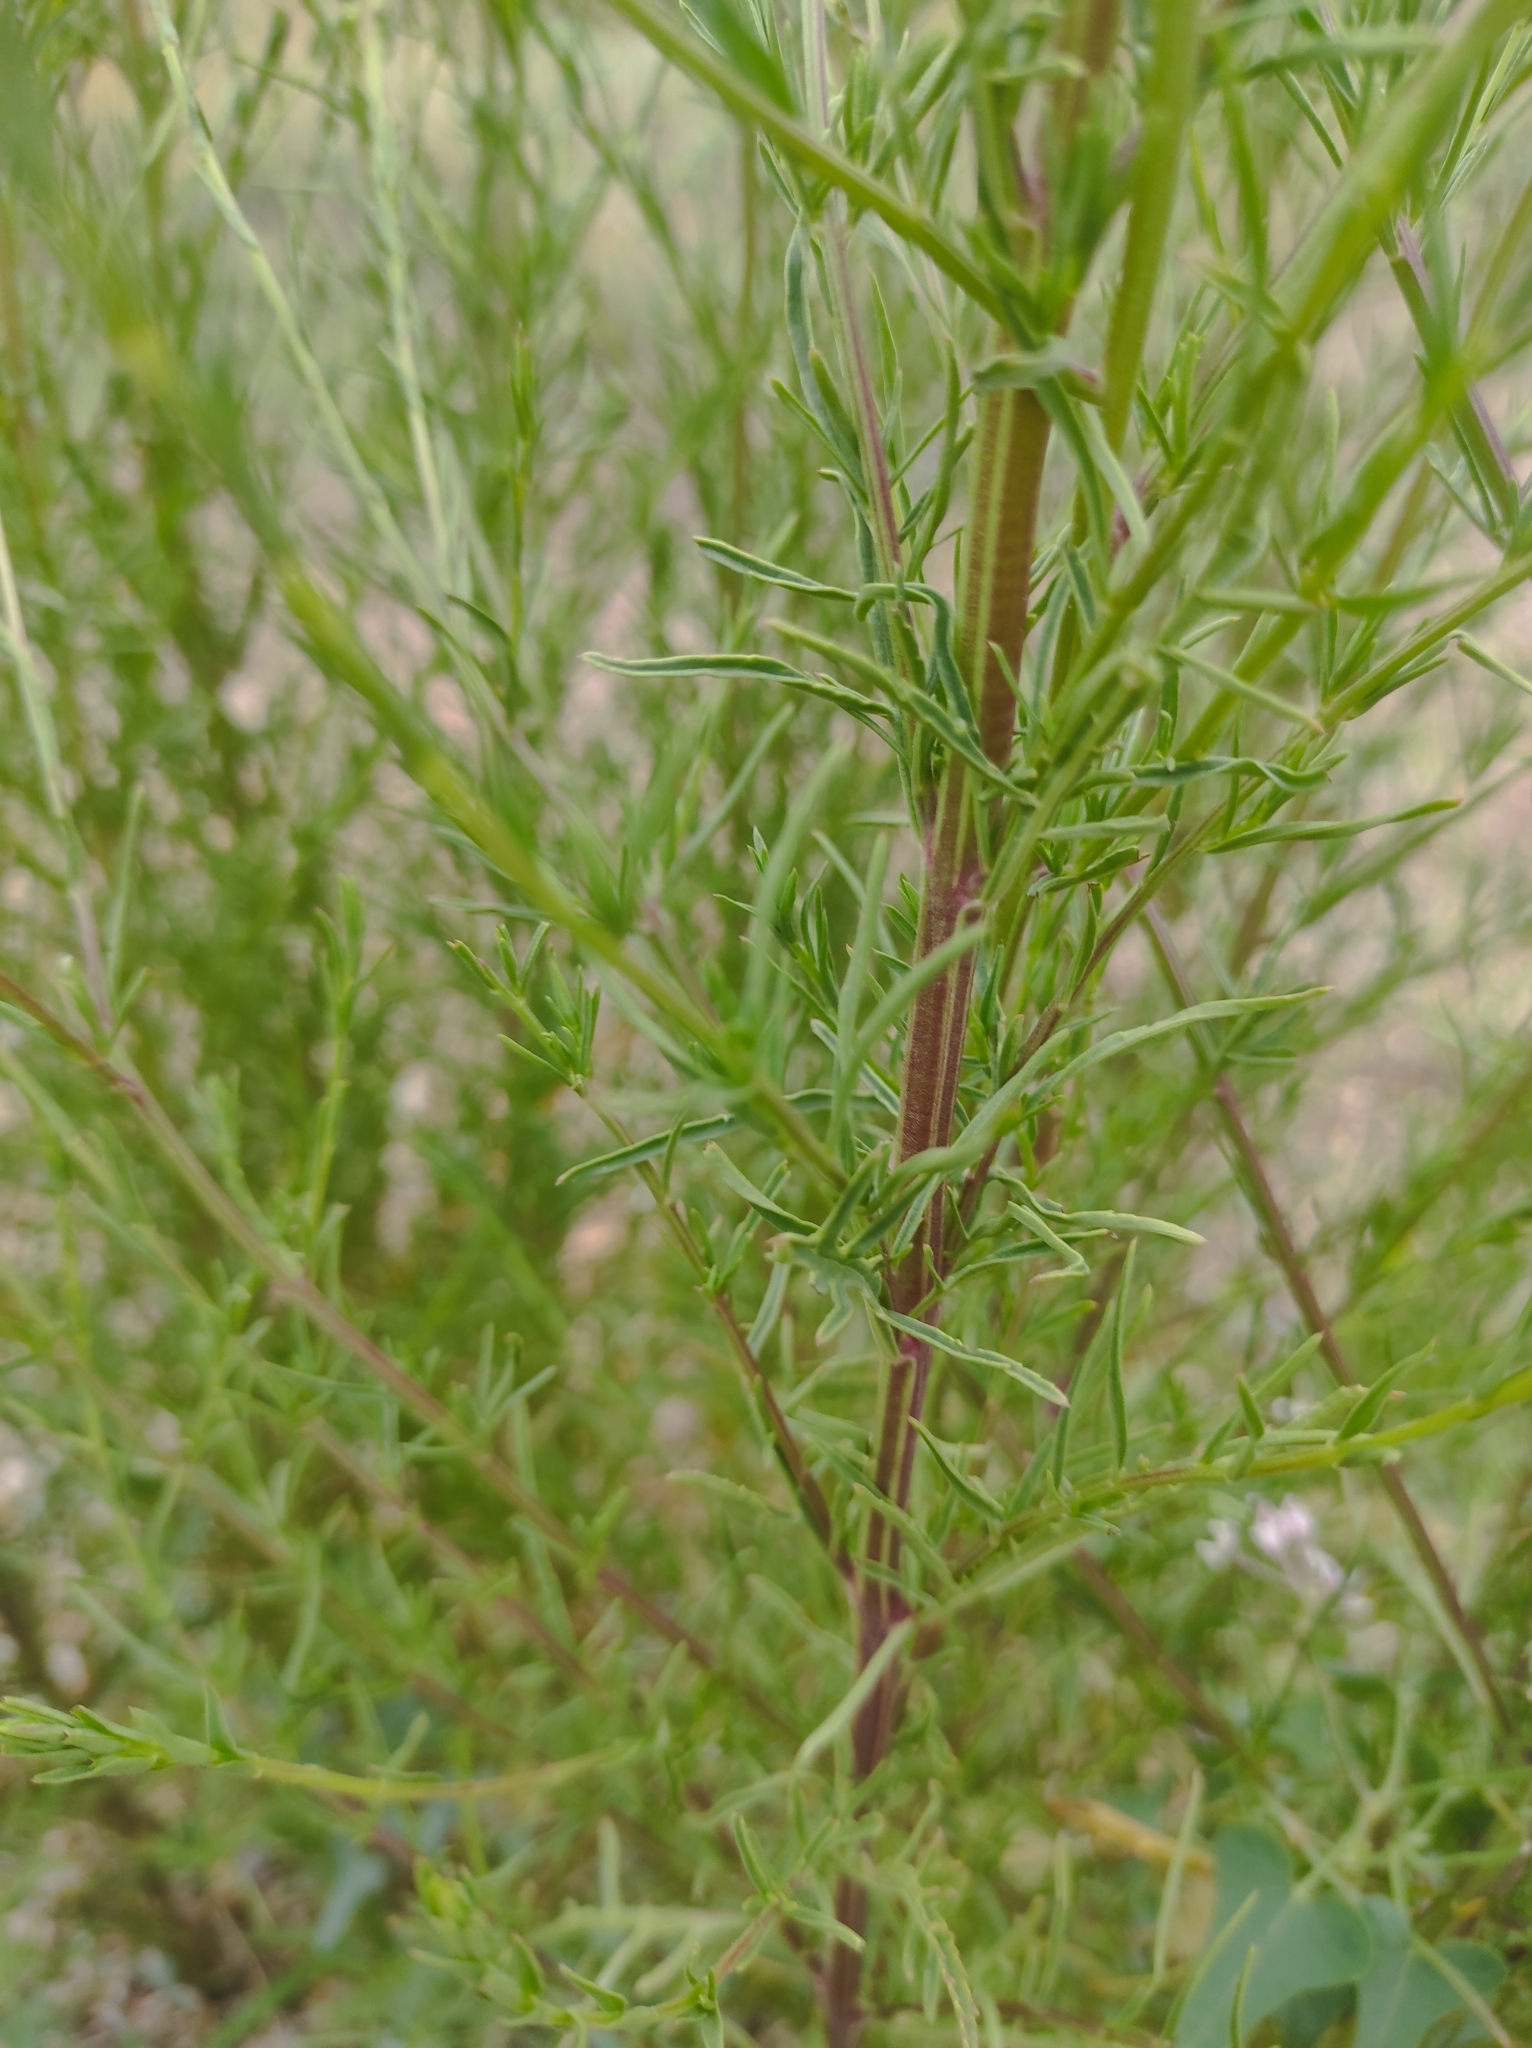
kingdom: Plantae
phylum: Tracheophyta
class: Magnoliopsida
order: Lamiales
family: Orobanchaceae
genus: Leptorhabdos
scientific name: Leptorhabdos parviflora
